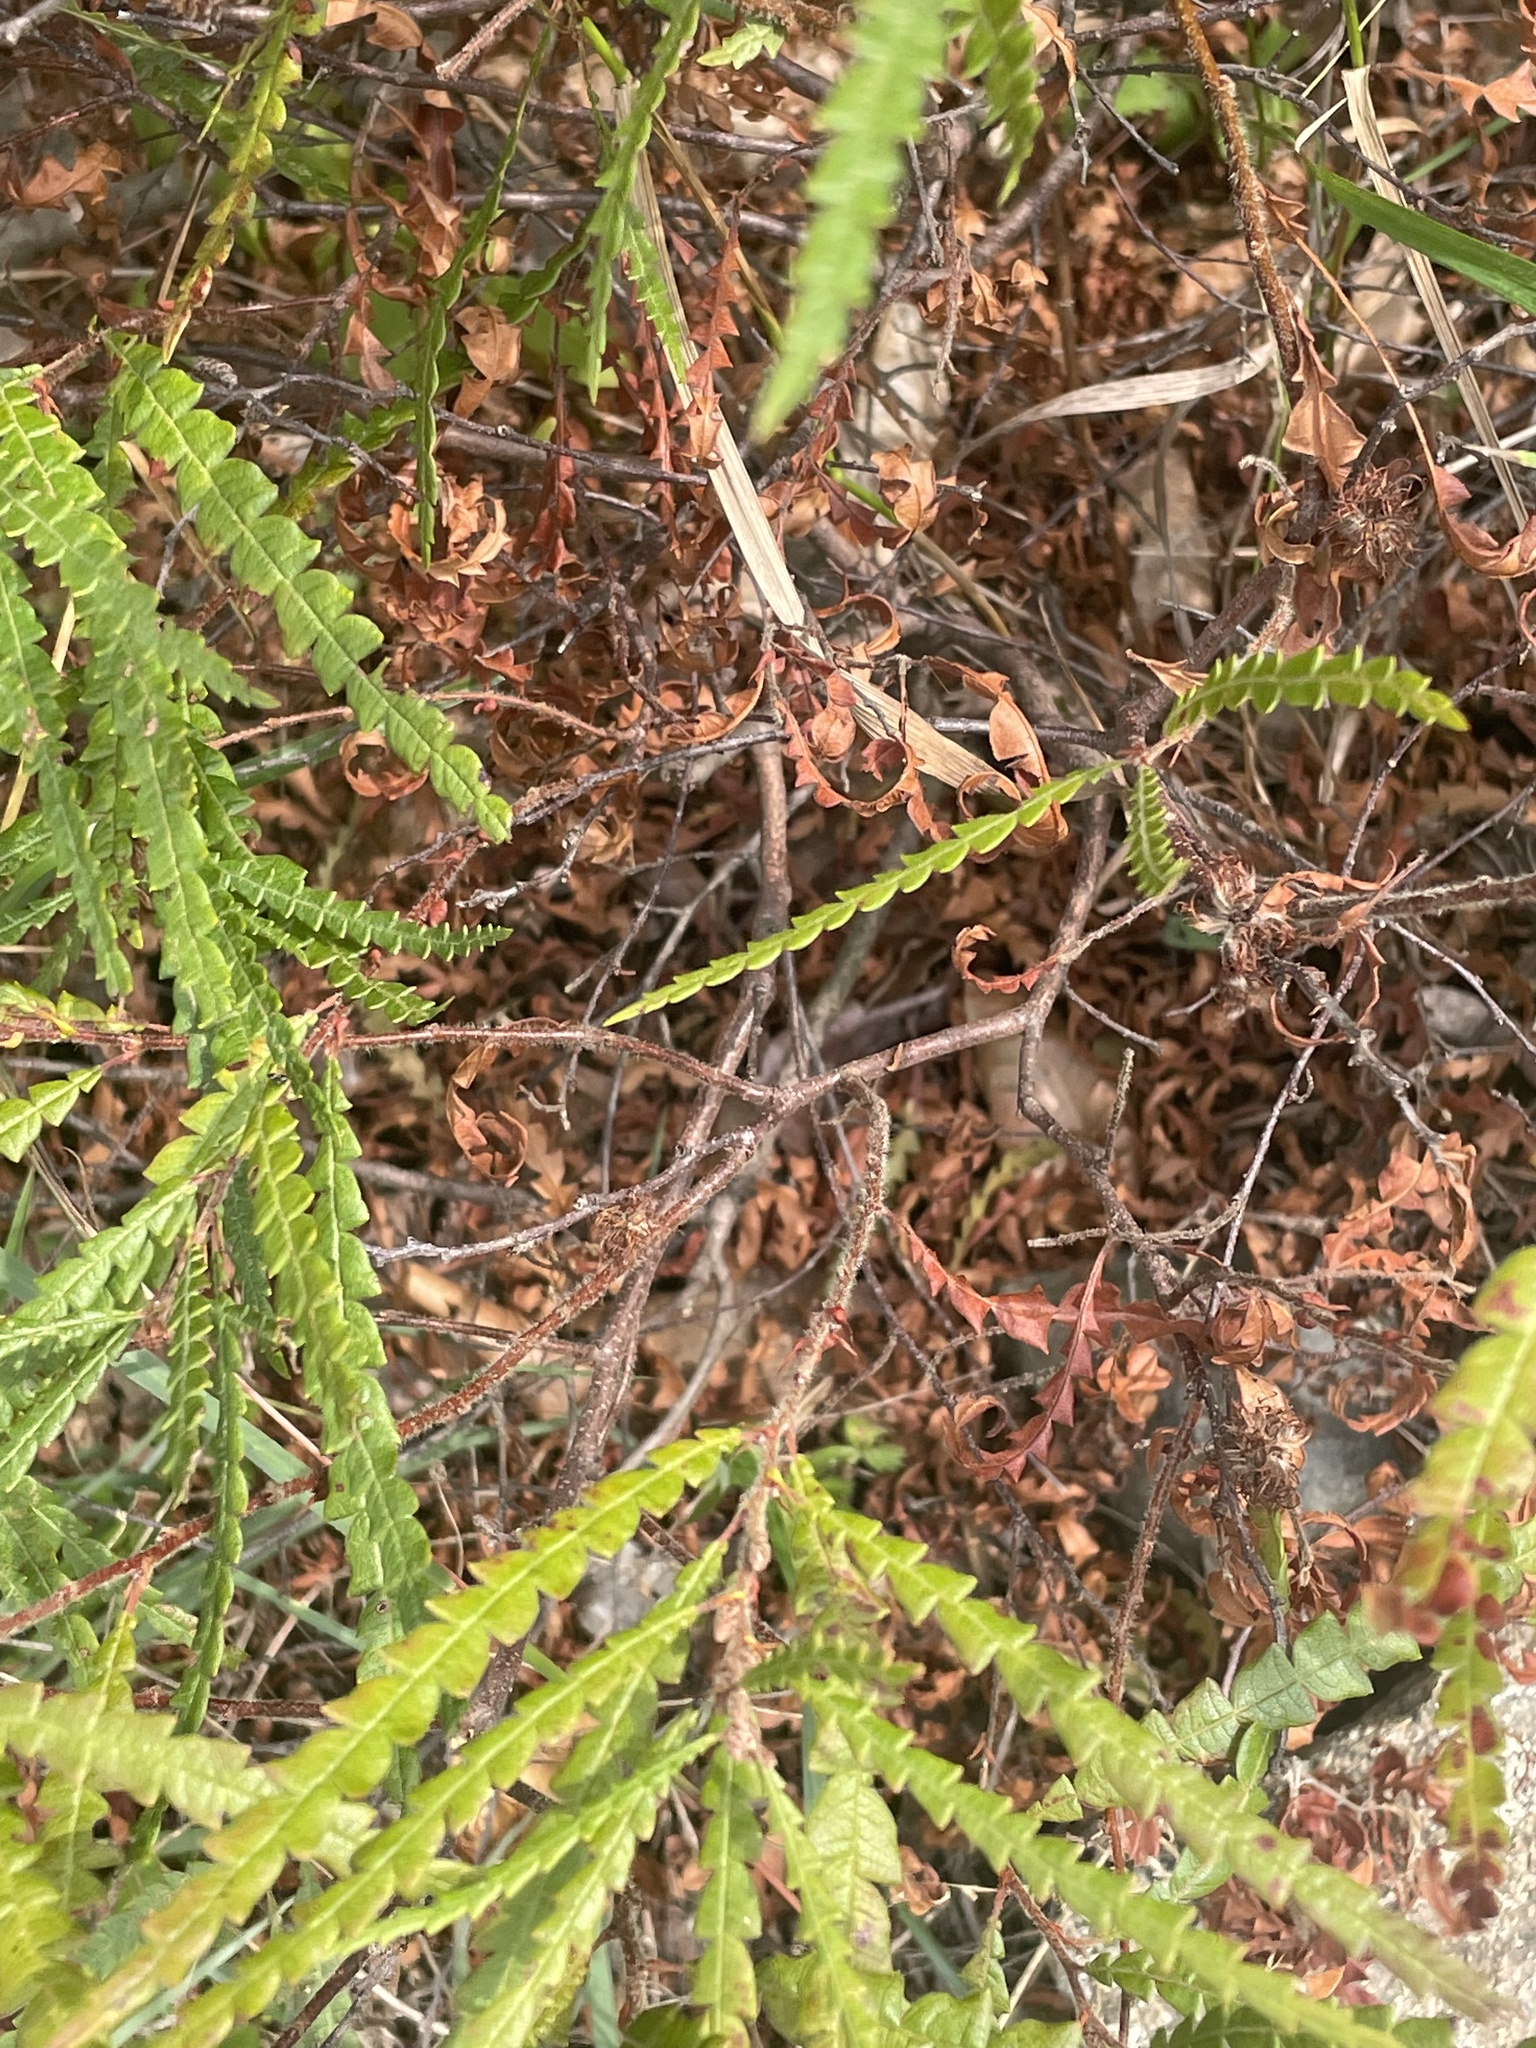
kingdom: Plantae
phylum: Tracheophyta
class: Magnoliopsida
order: Fagales
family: Myricaceae
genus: Comptonia
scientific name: Comptonia peregrina
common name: Sweet-fern
